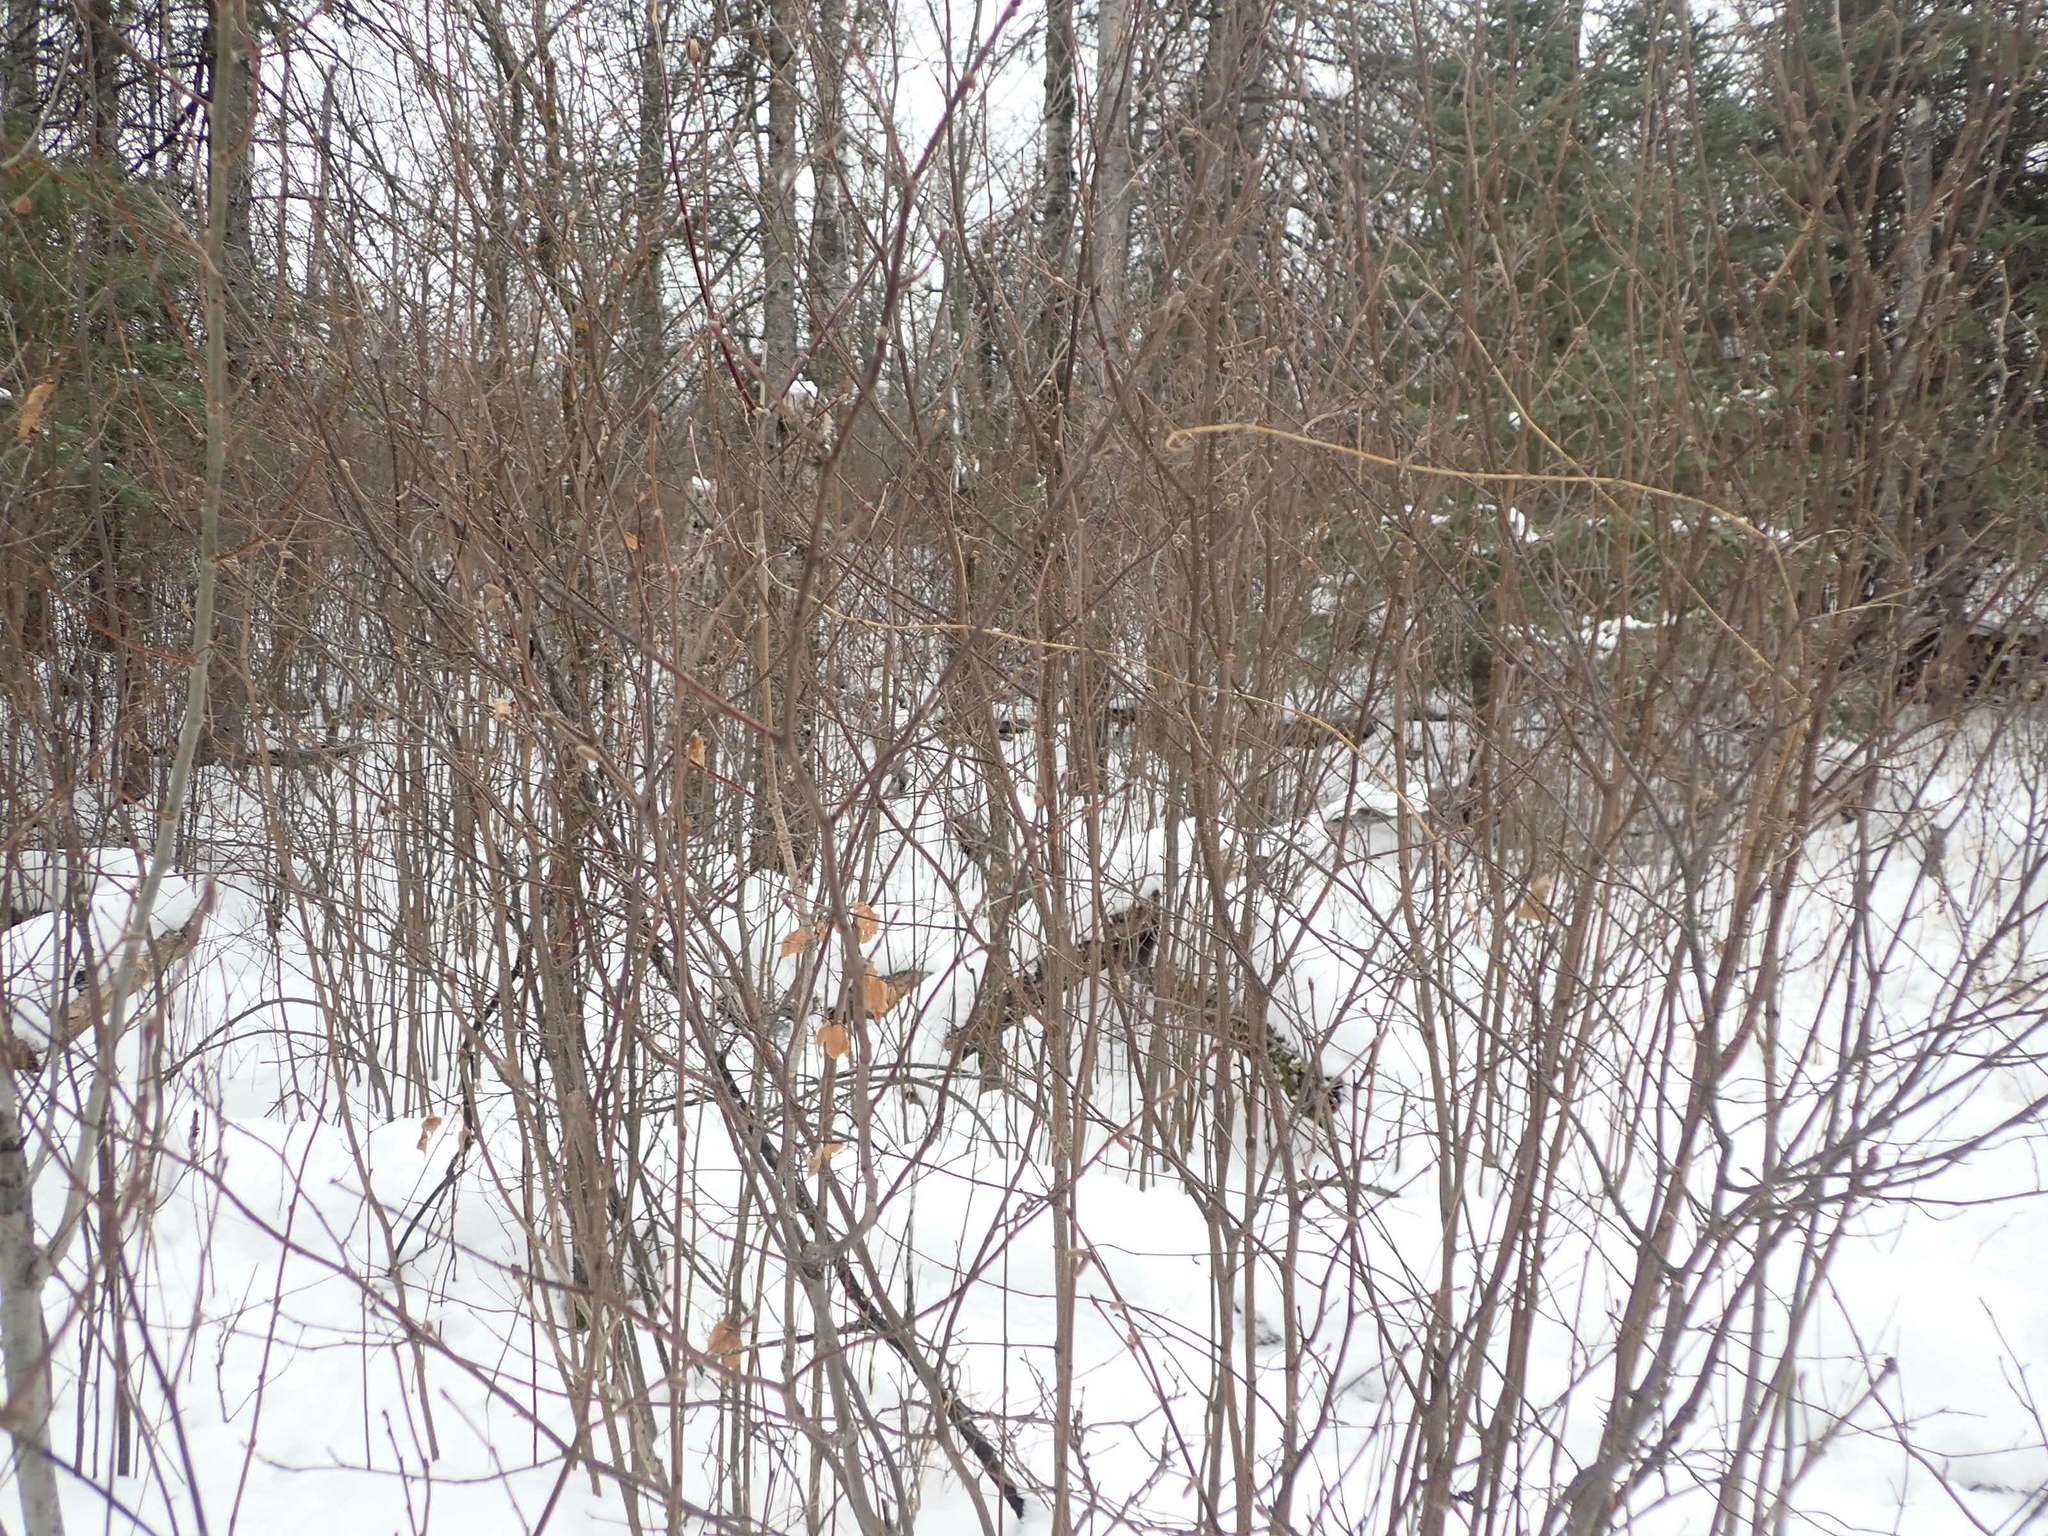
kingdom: Plantae
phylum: Tracheophyta
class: Magnoliopsida
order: Fagales
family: Betulaceae
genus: Corylus
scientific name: Corylus cornuta
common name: Beaked hazel
